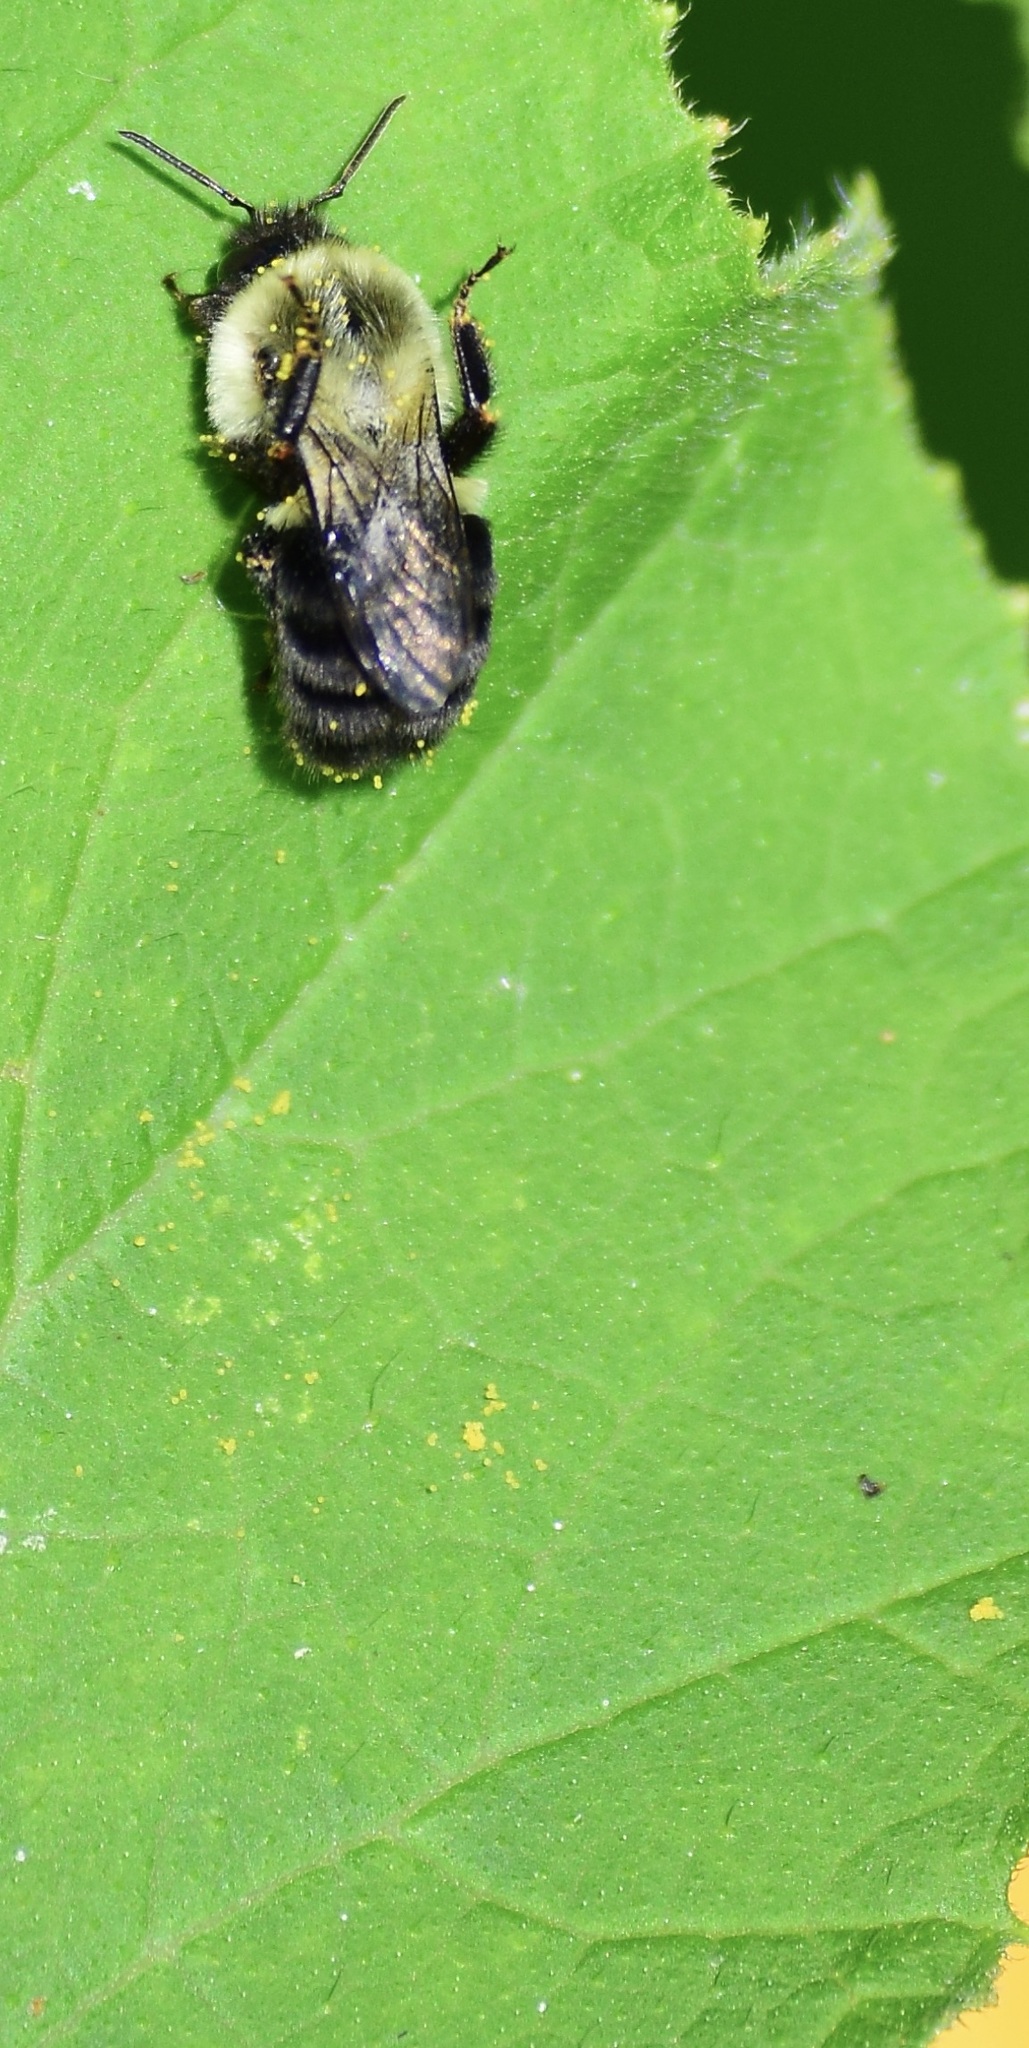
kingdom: Animalia
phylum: Arthropoda
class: Insecta
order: Hymenoptera
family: Apidae
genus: Bombus
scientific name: Bombus impatiens
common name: Common eastern bumble bee
